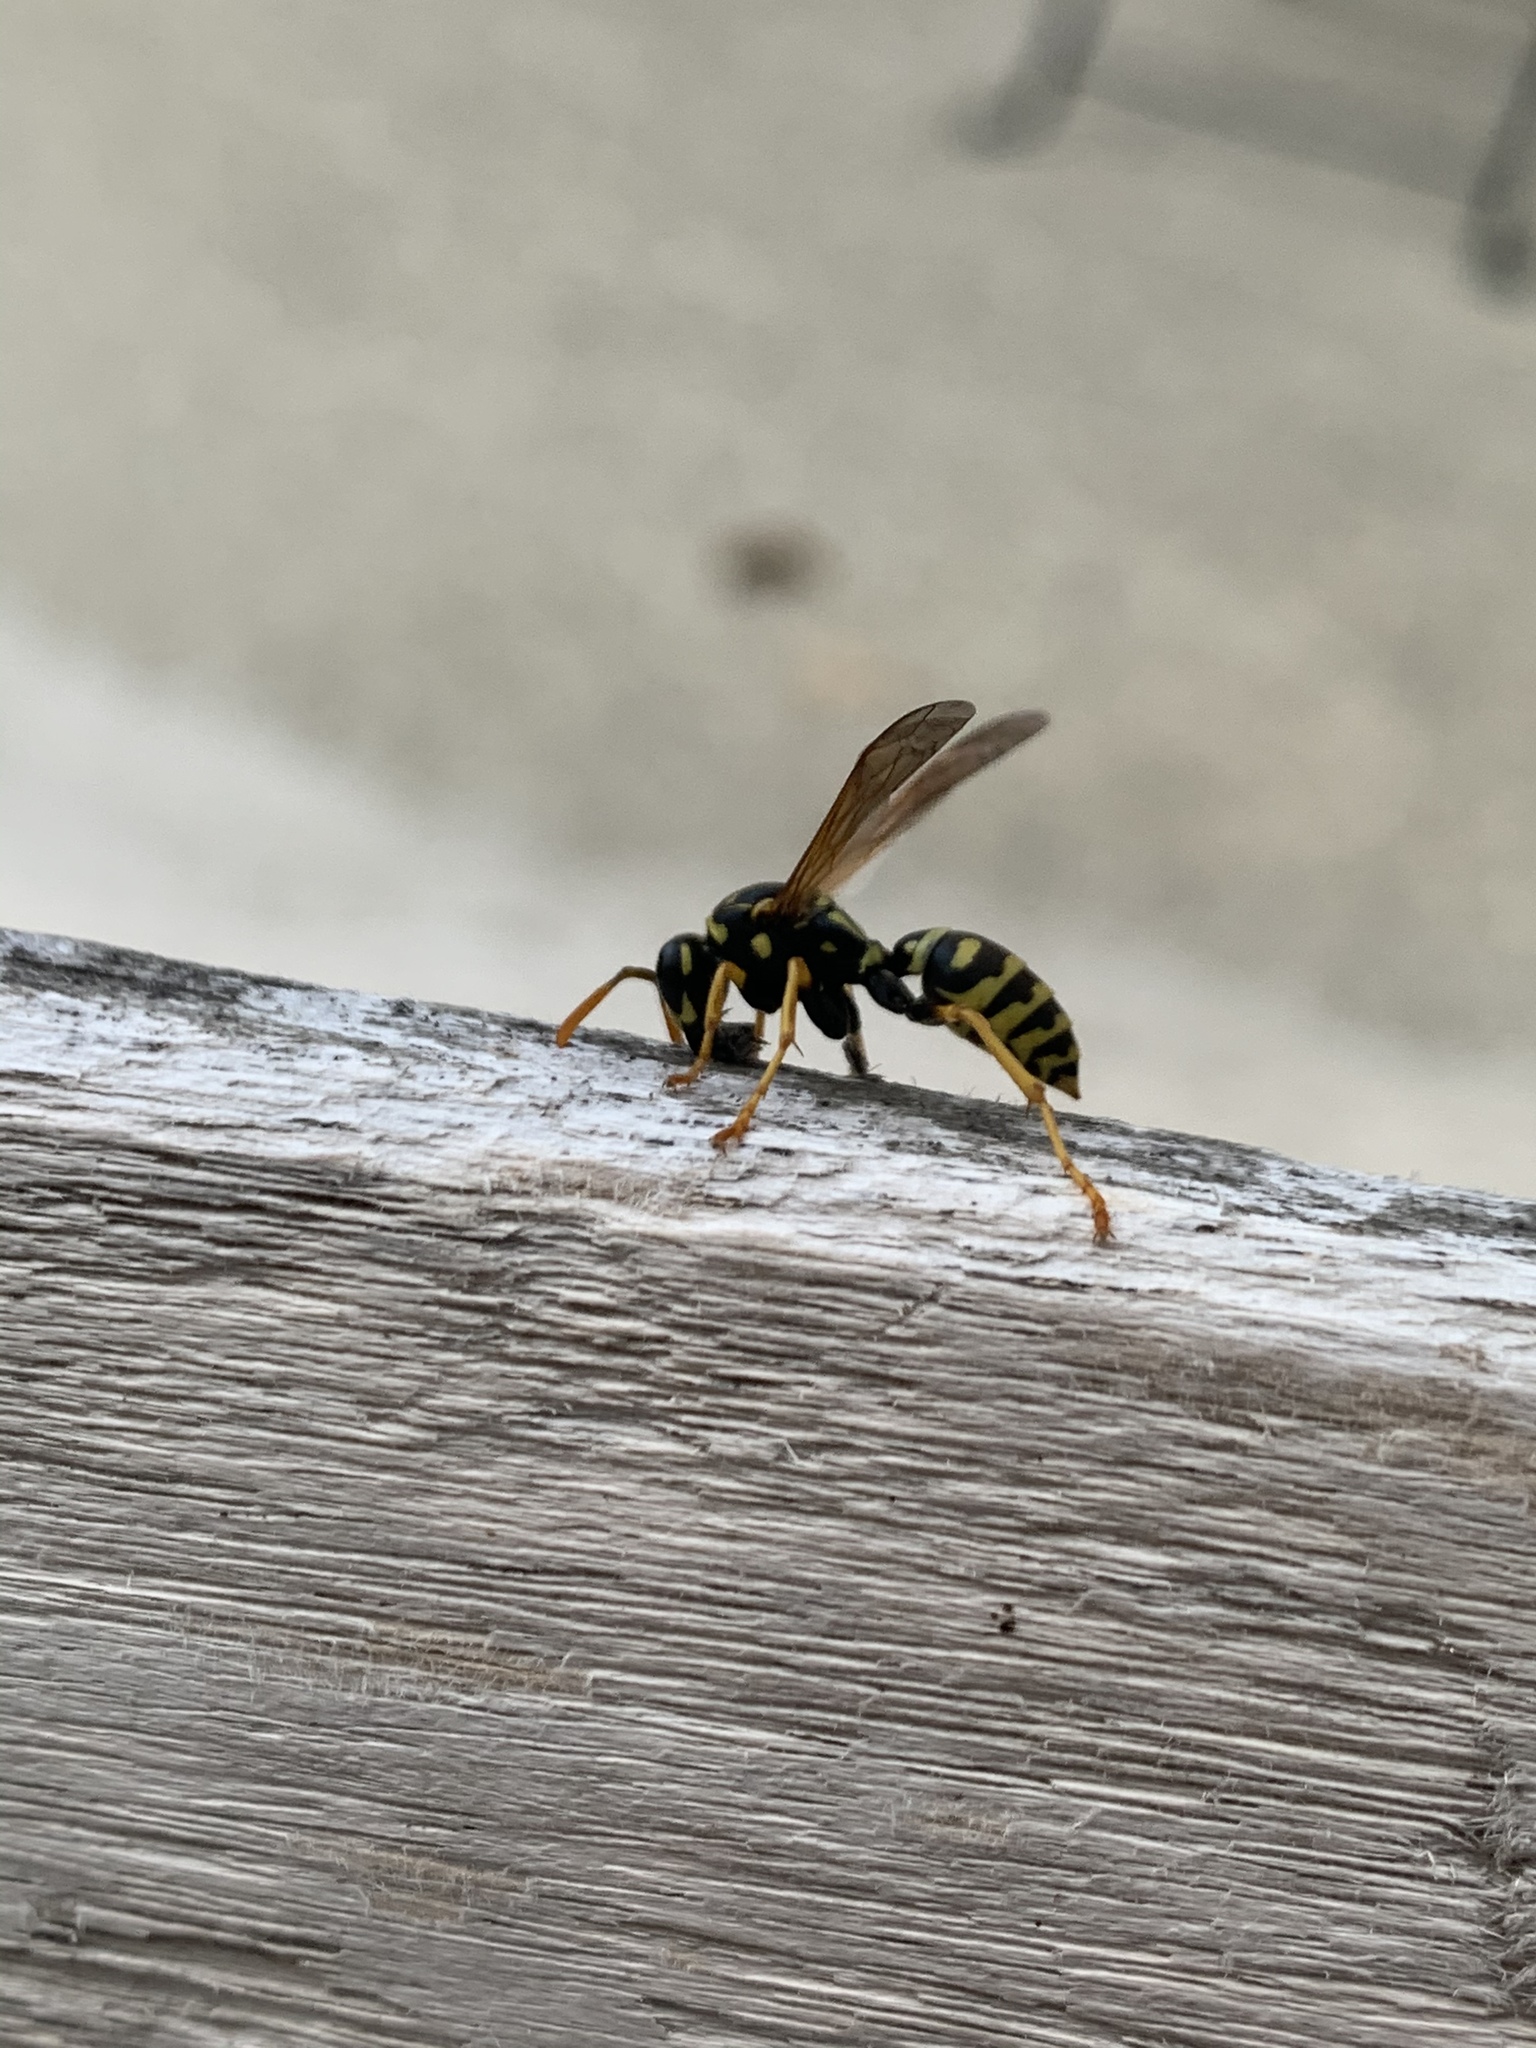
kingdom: Animalia
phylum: Arthropoda
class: Insecta
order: Hymenoptera
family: Eumenidae
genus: Polistes
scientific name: Polistes dominula
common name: Paper wasp
